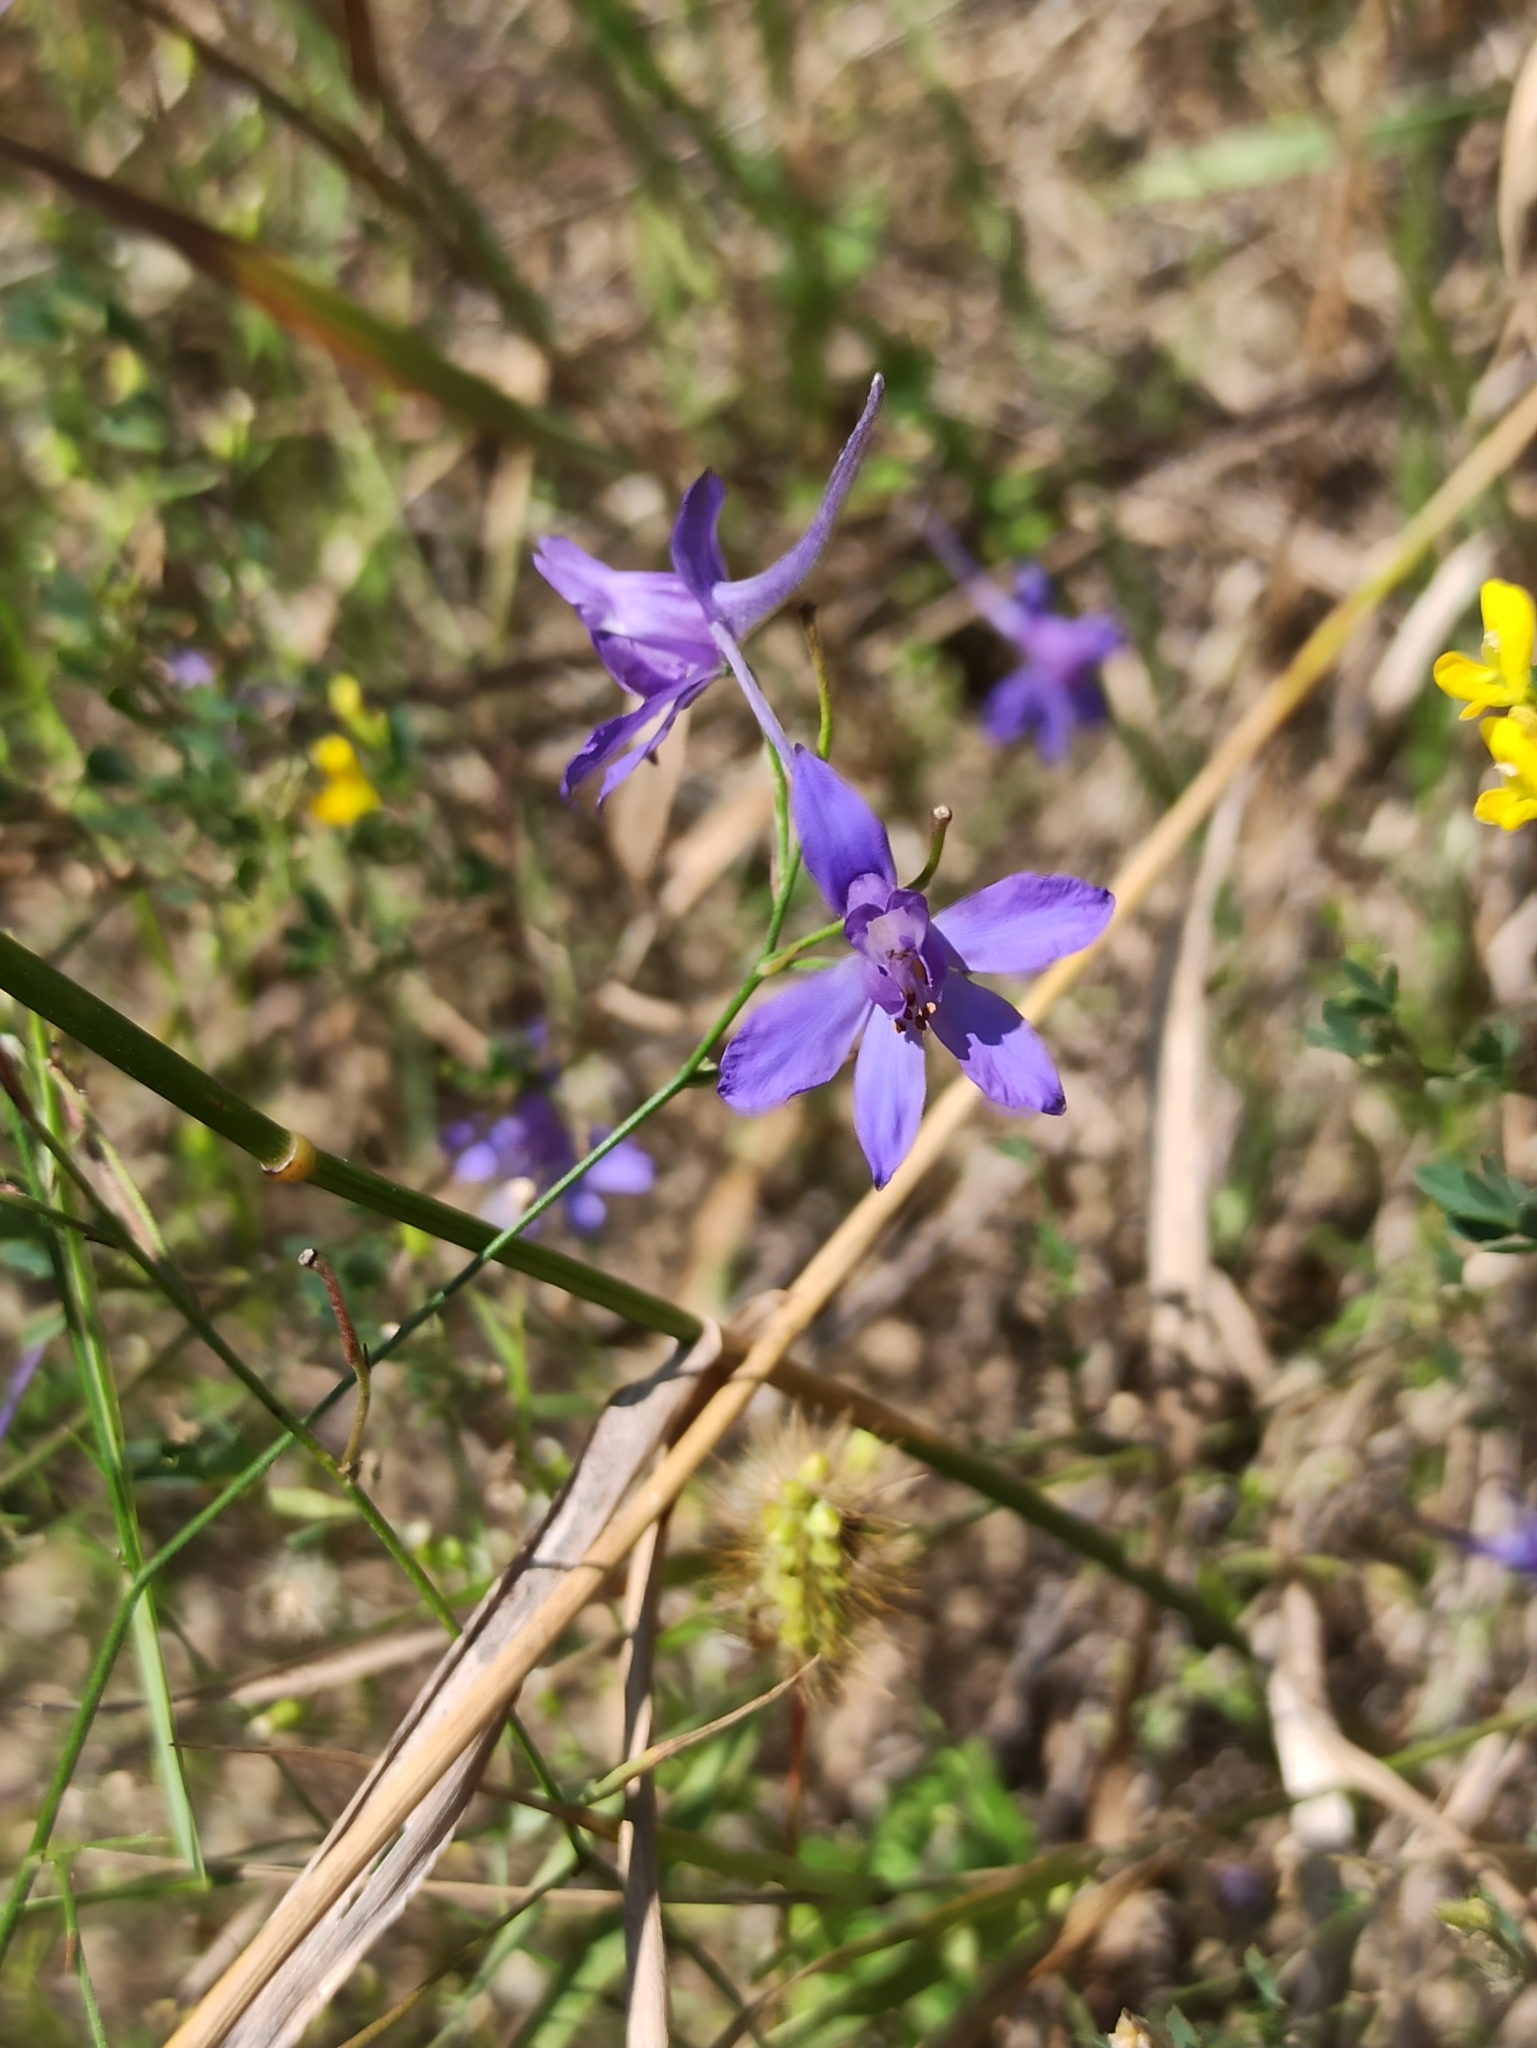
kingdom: Plantae
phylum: Tracheophyta
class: Magnoliopsida
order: Ranunculales
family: Ranunculaceae
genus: Delphinium
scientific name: Delphinium consolida
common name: Branching larkspur
